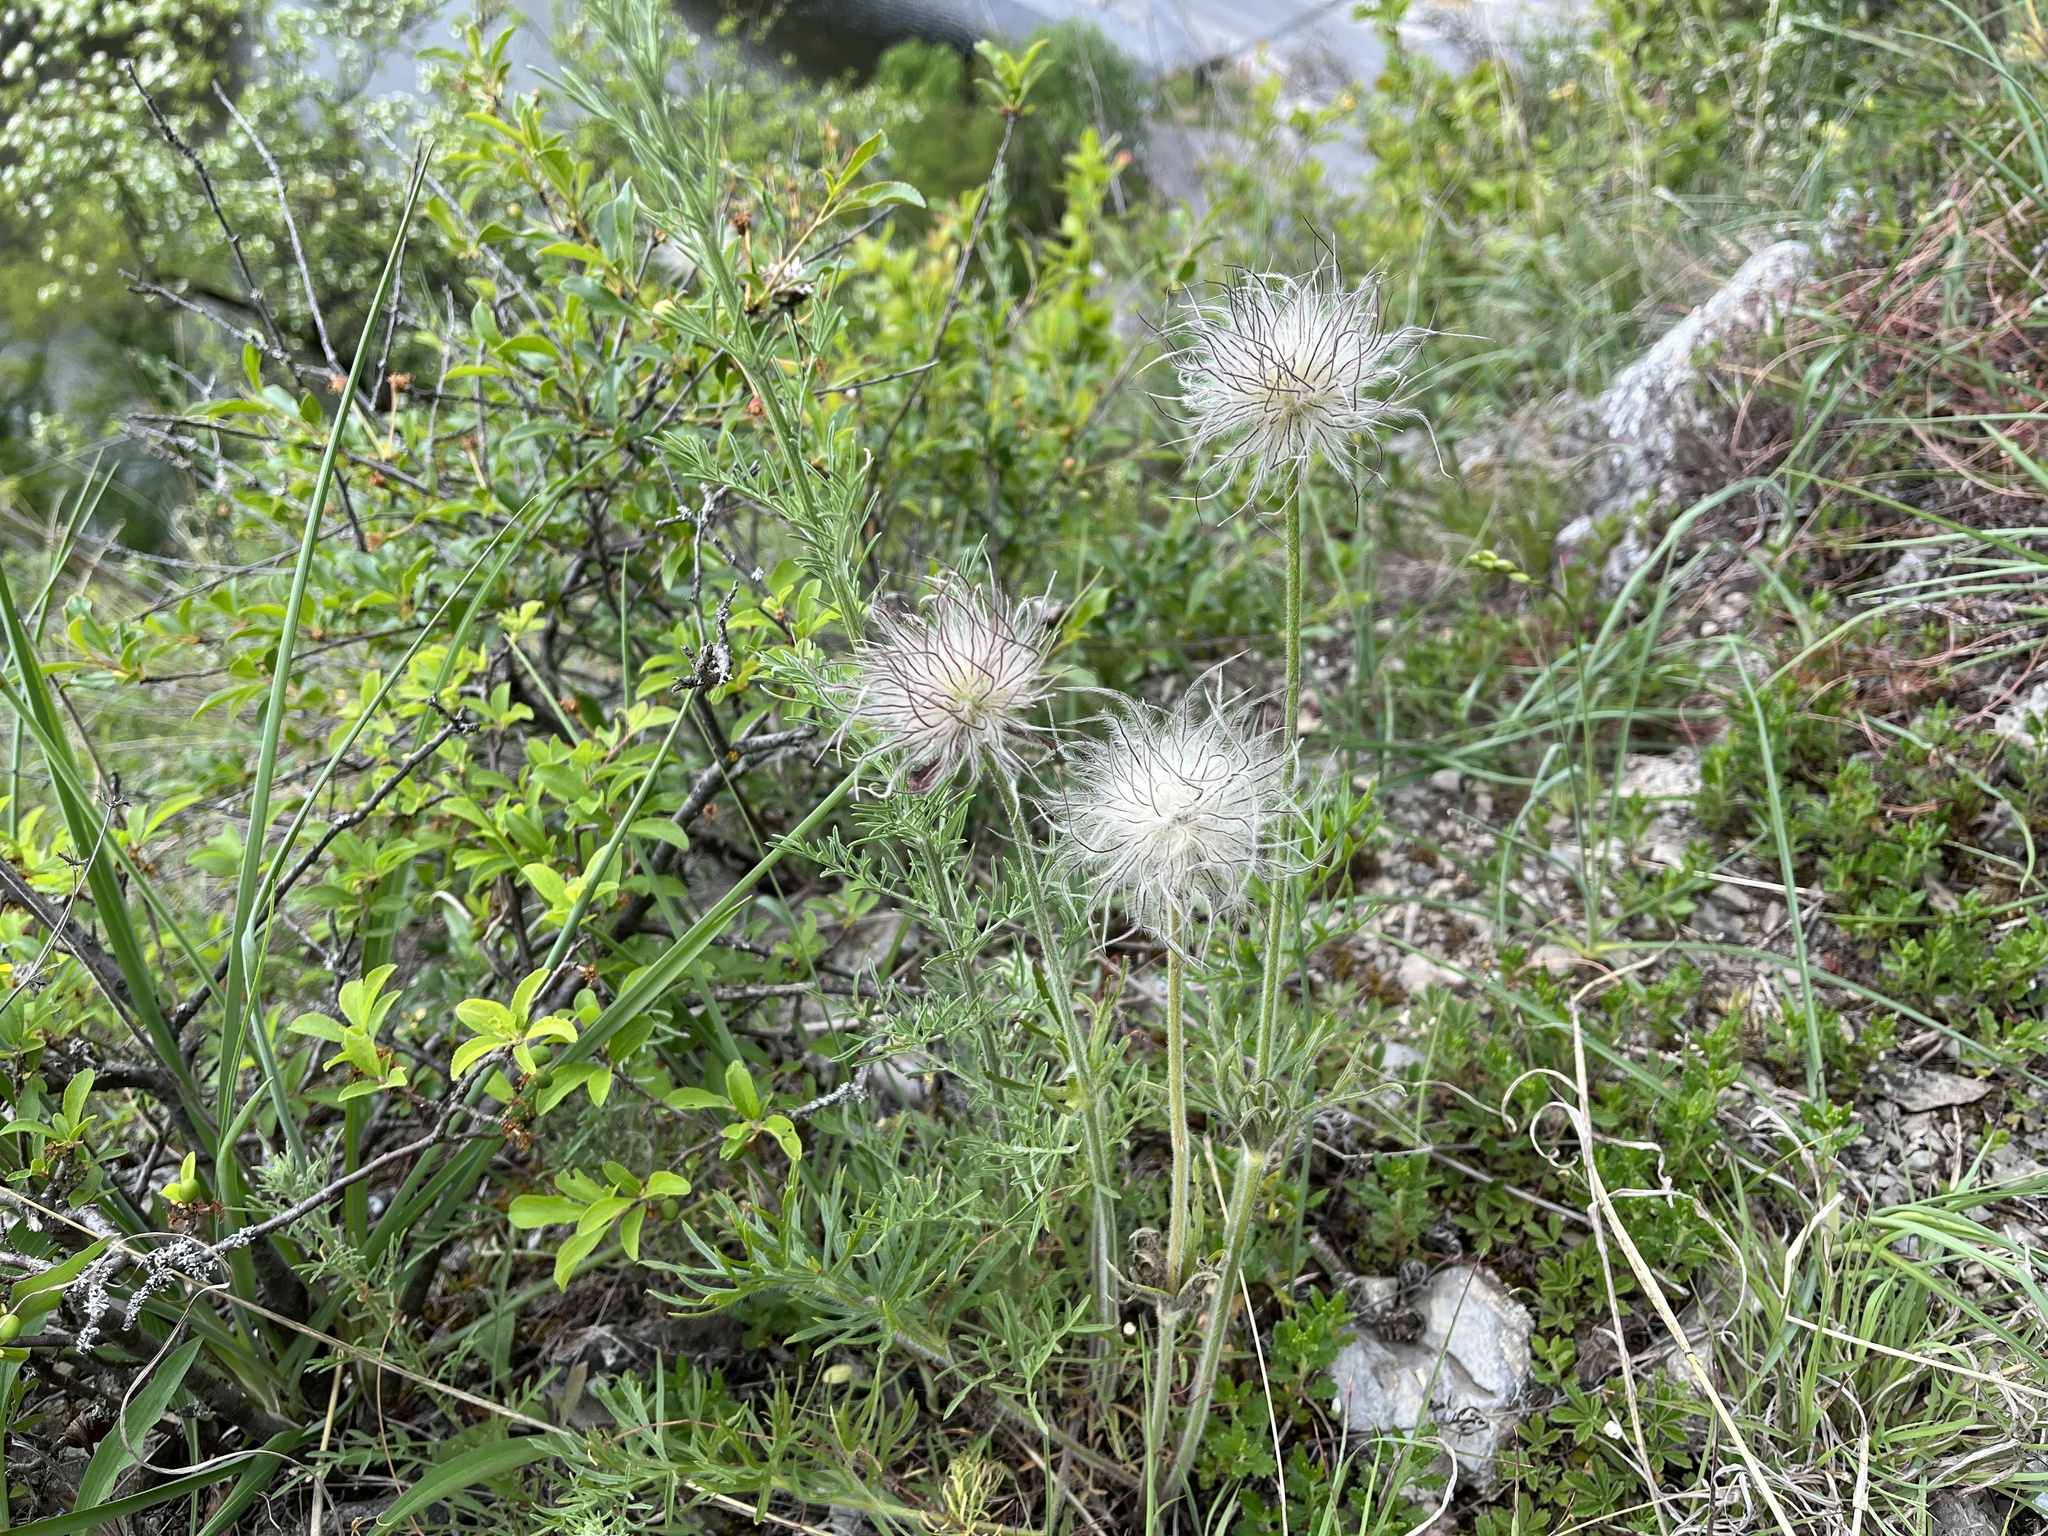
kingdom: Plantae
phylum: Tracheophyta
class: Magnoliopsida
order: Ranunculales
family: Ranunculaceae
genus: Pulsatilla
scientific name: Pulsatilla pratensis
